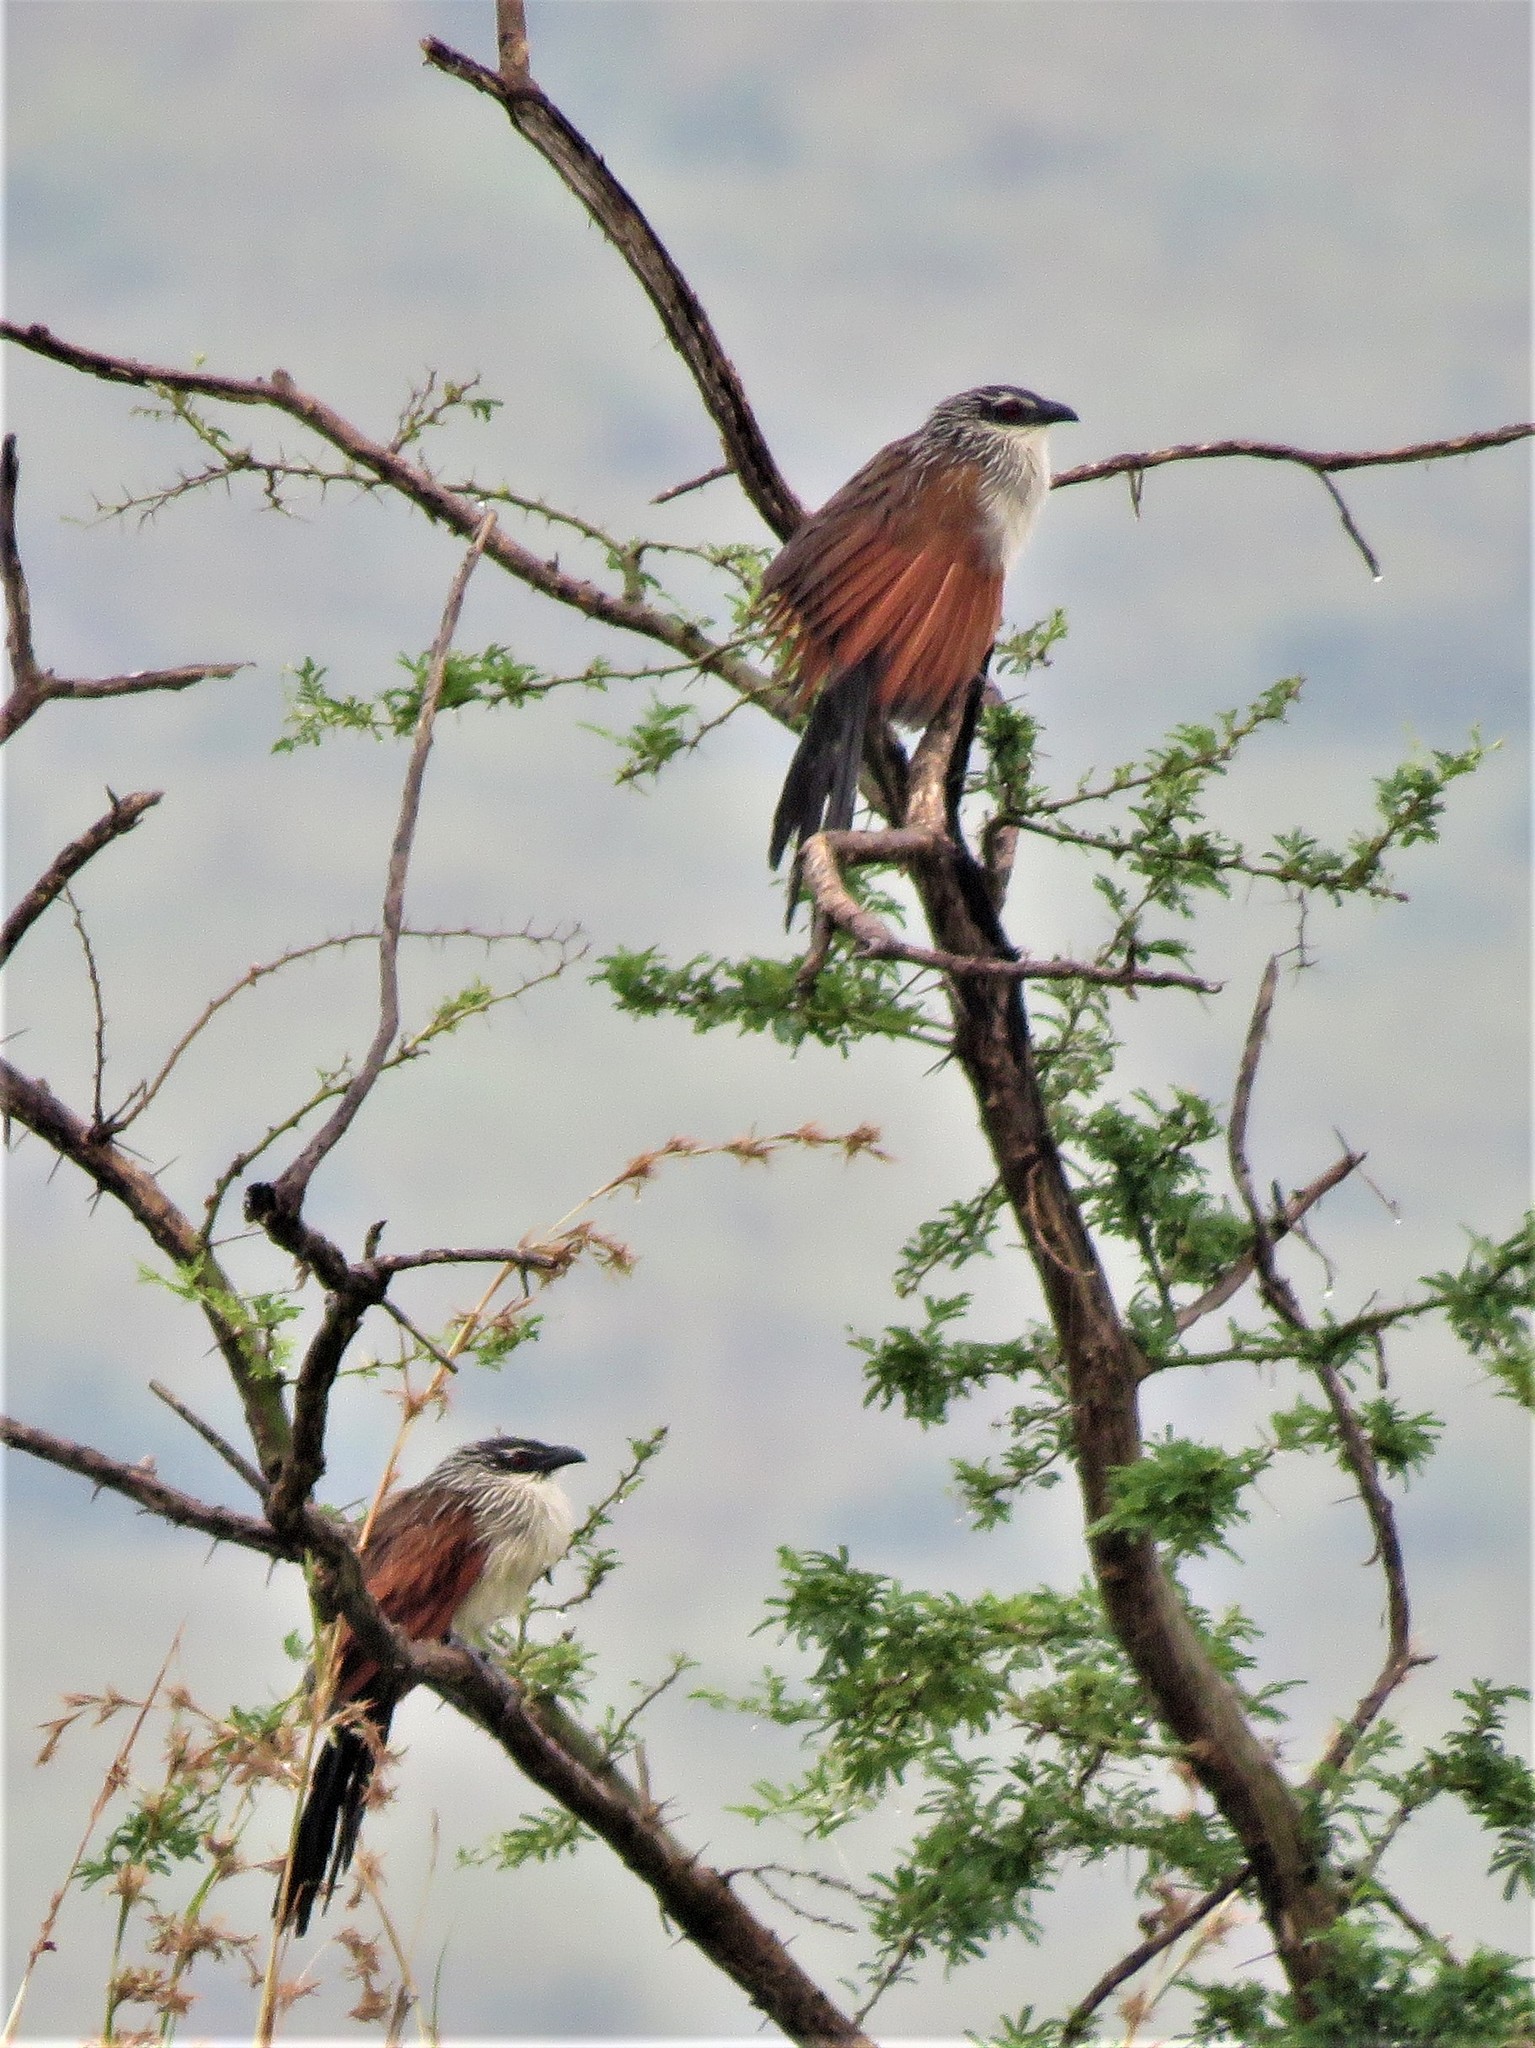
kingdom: Animalia
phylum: Chordata
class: Aves
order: Cuculiformes
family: Cuculidae
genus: Centropus
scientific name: Centropus superciliosus
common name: White-browed coucal
